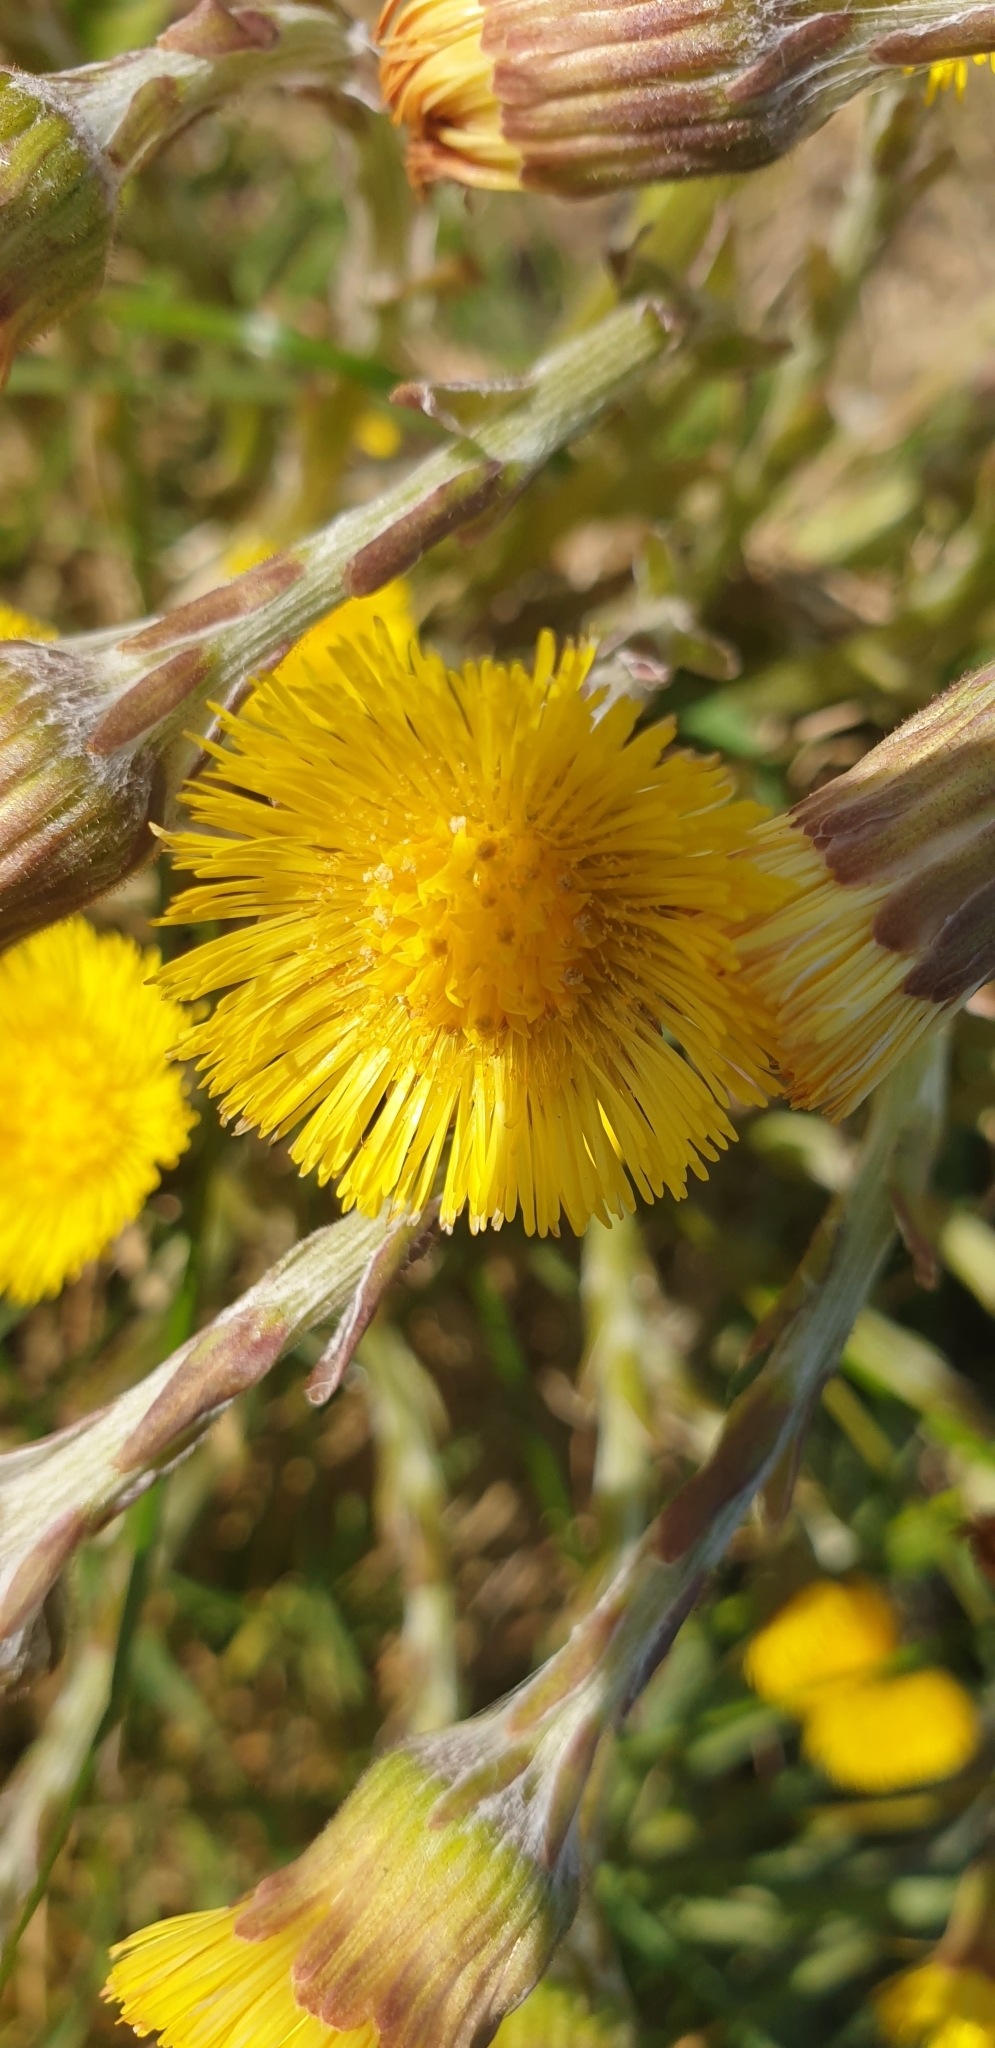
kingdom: Plantae
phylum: Tracheophyta
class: Magnoliopsida
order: Asterales
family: Asteraceae
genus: Tussilago
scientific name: Tussilago farfara
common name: Coltsfoot
